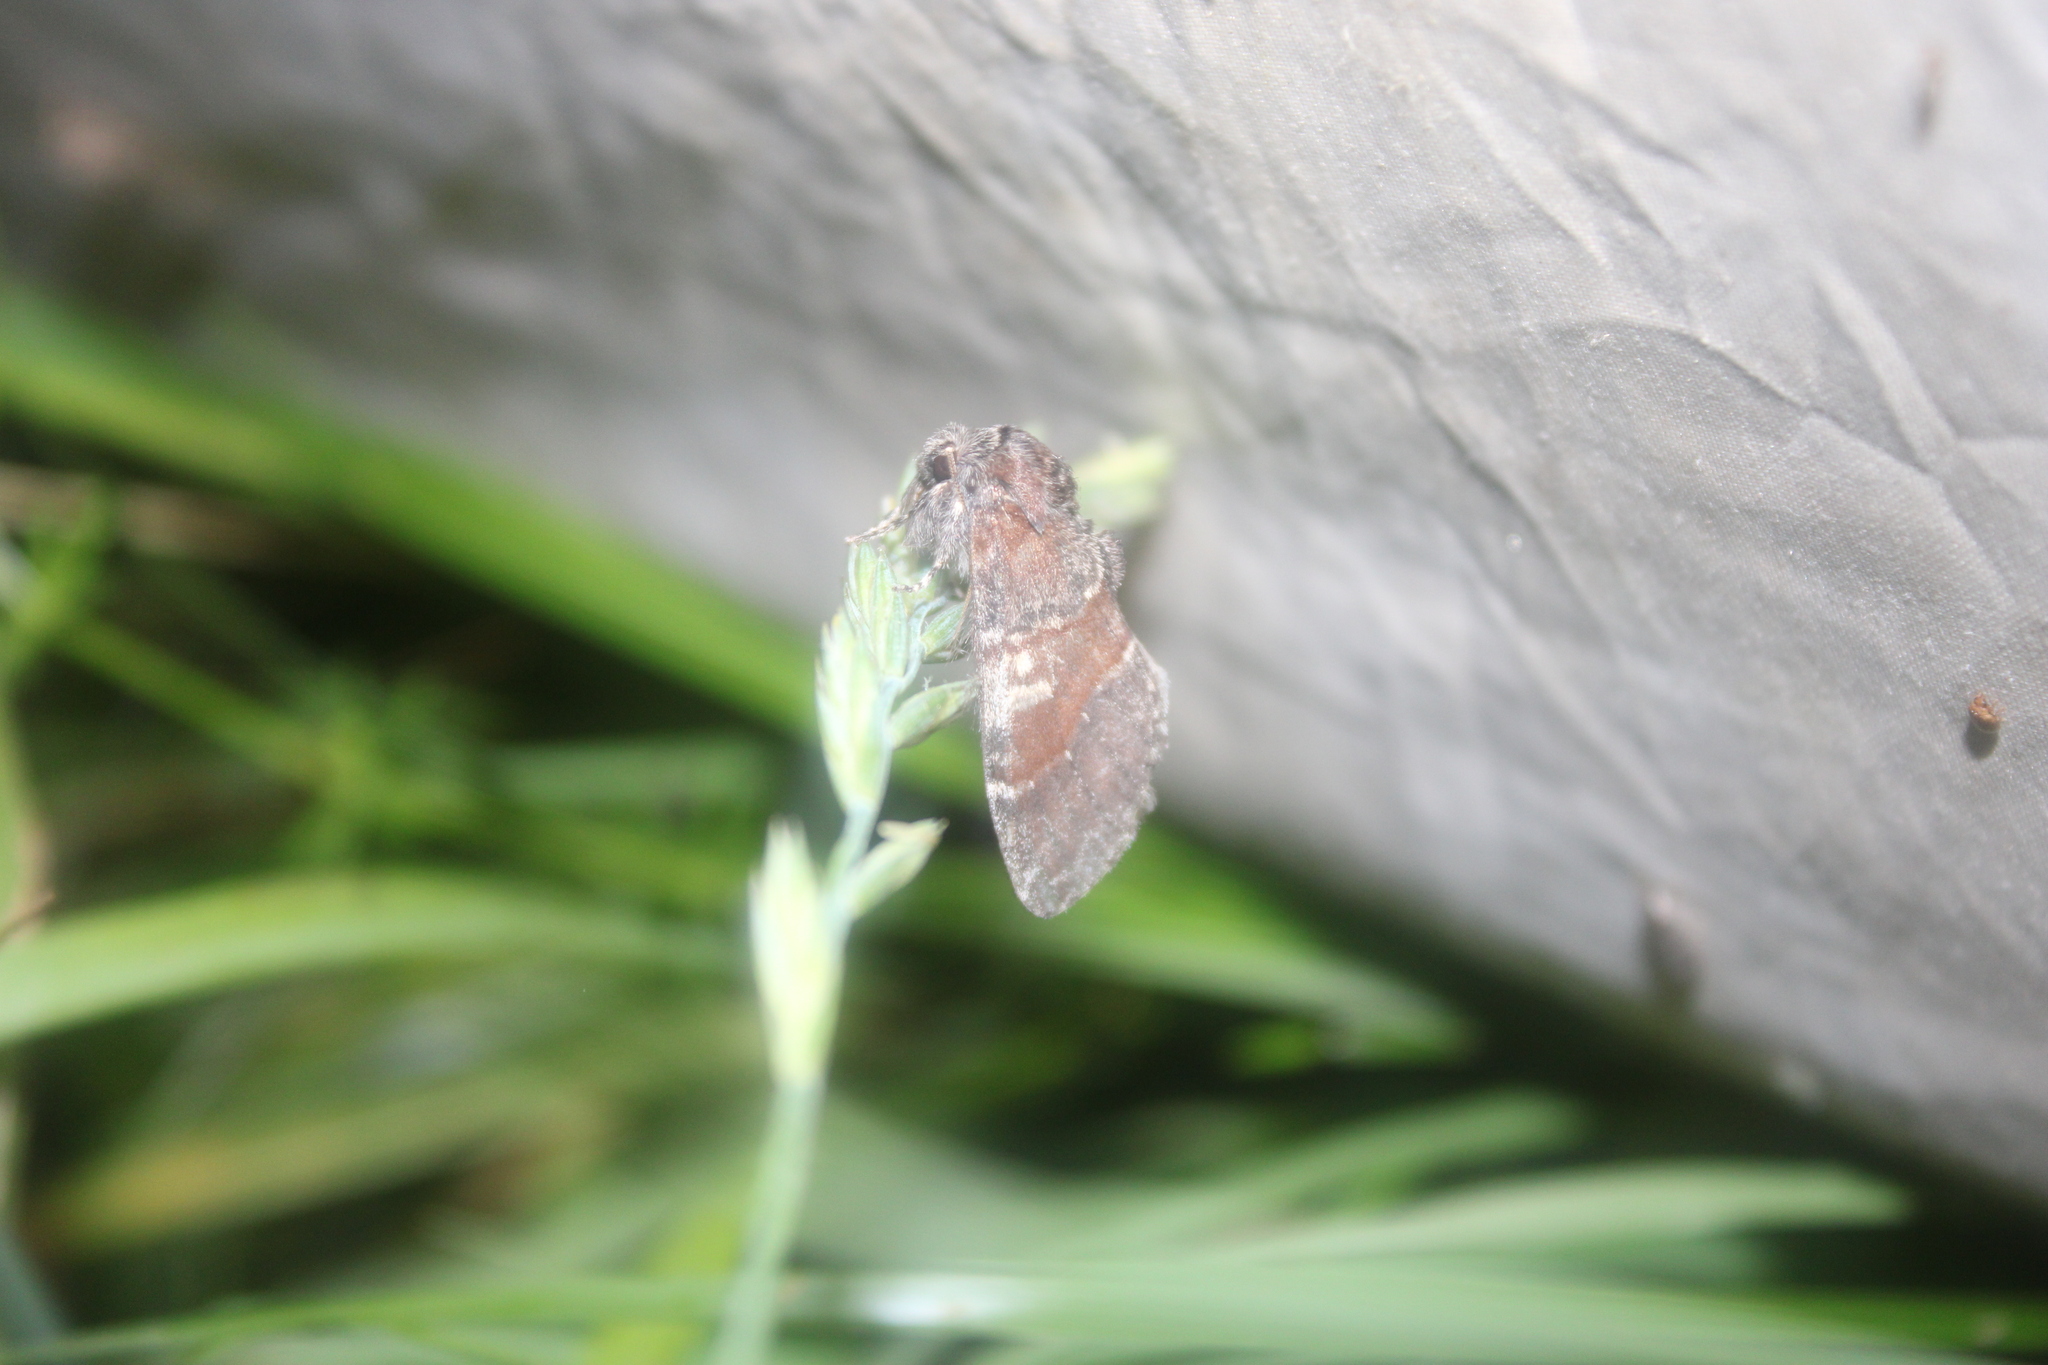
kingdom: Animalia
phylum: Arthropoda
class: Insecta
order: Lepidoptera
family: Notodontidae
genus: Peridea
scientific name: Peridea ferruginea
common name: Chocolate prominent
